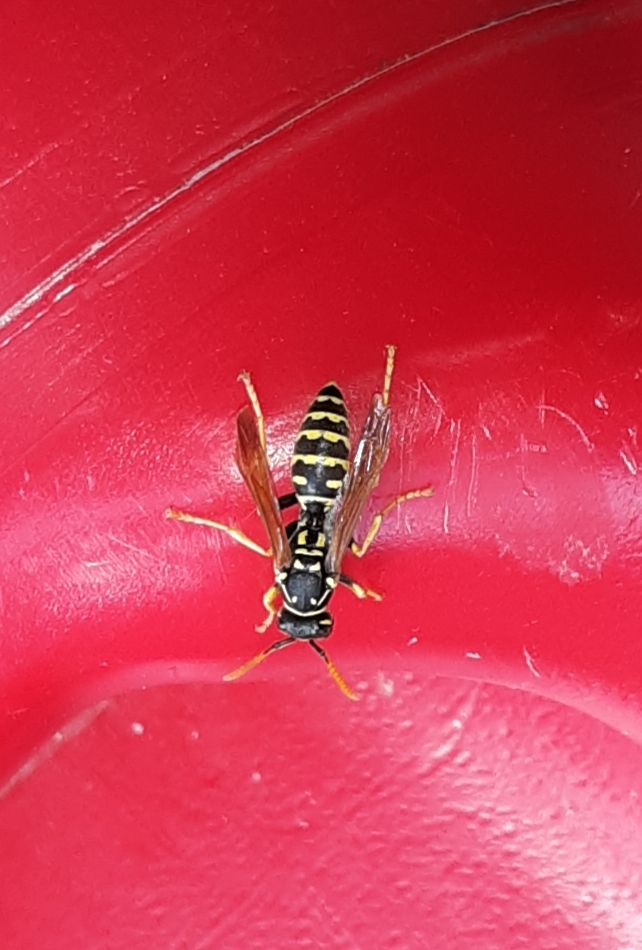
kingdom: Animalia
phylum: Arthropoda
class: Insecta
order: Hymenoptera
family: Eumenidae
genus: Polistes
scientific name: Polistes dominula
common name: Paper wasp
